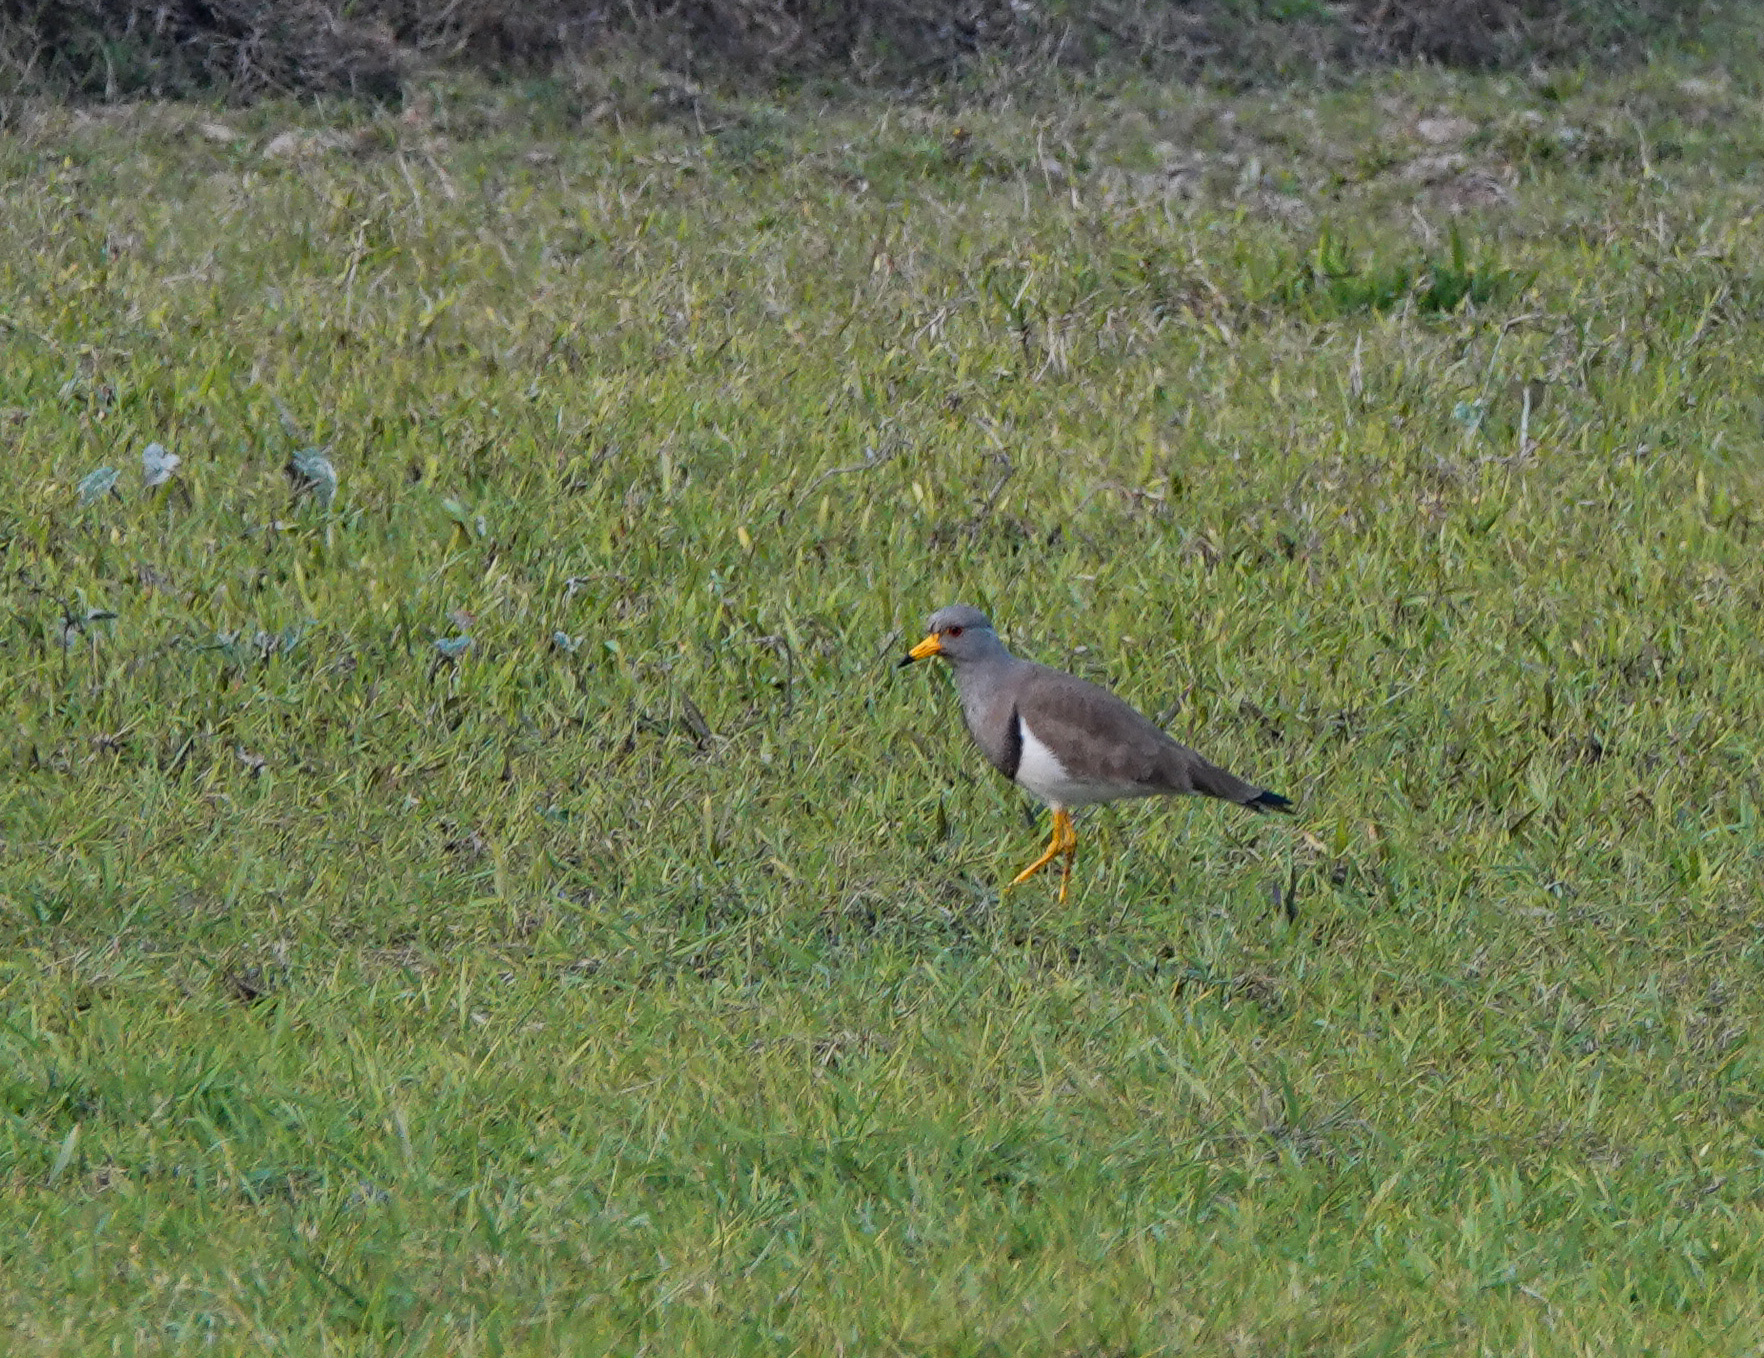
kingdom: Animalia
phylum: Chordata
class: Aves
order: Charadriiformes
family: Charadriidae
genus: Vanellus
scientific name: Vanellus cinereus
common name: Grey-headed lapwing
